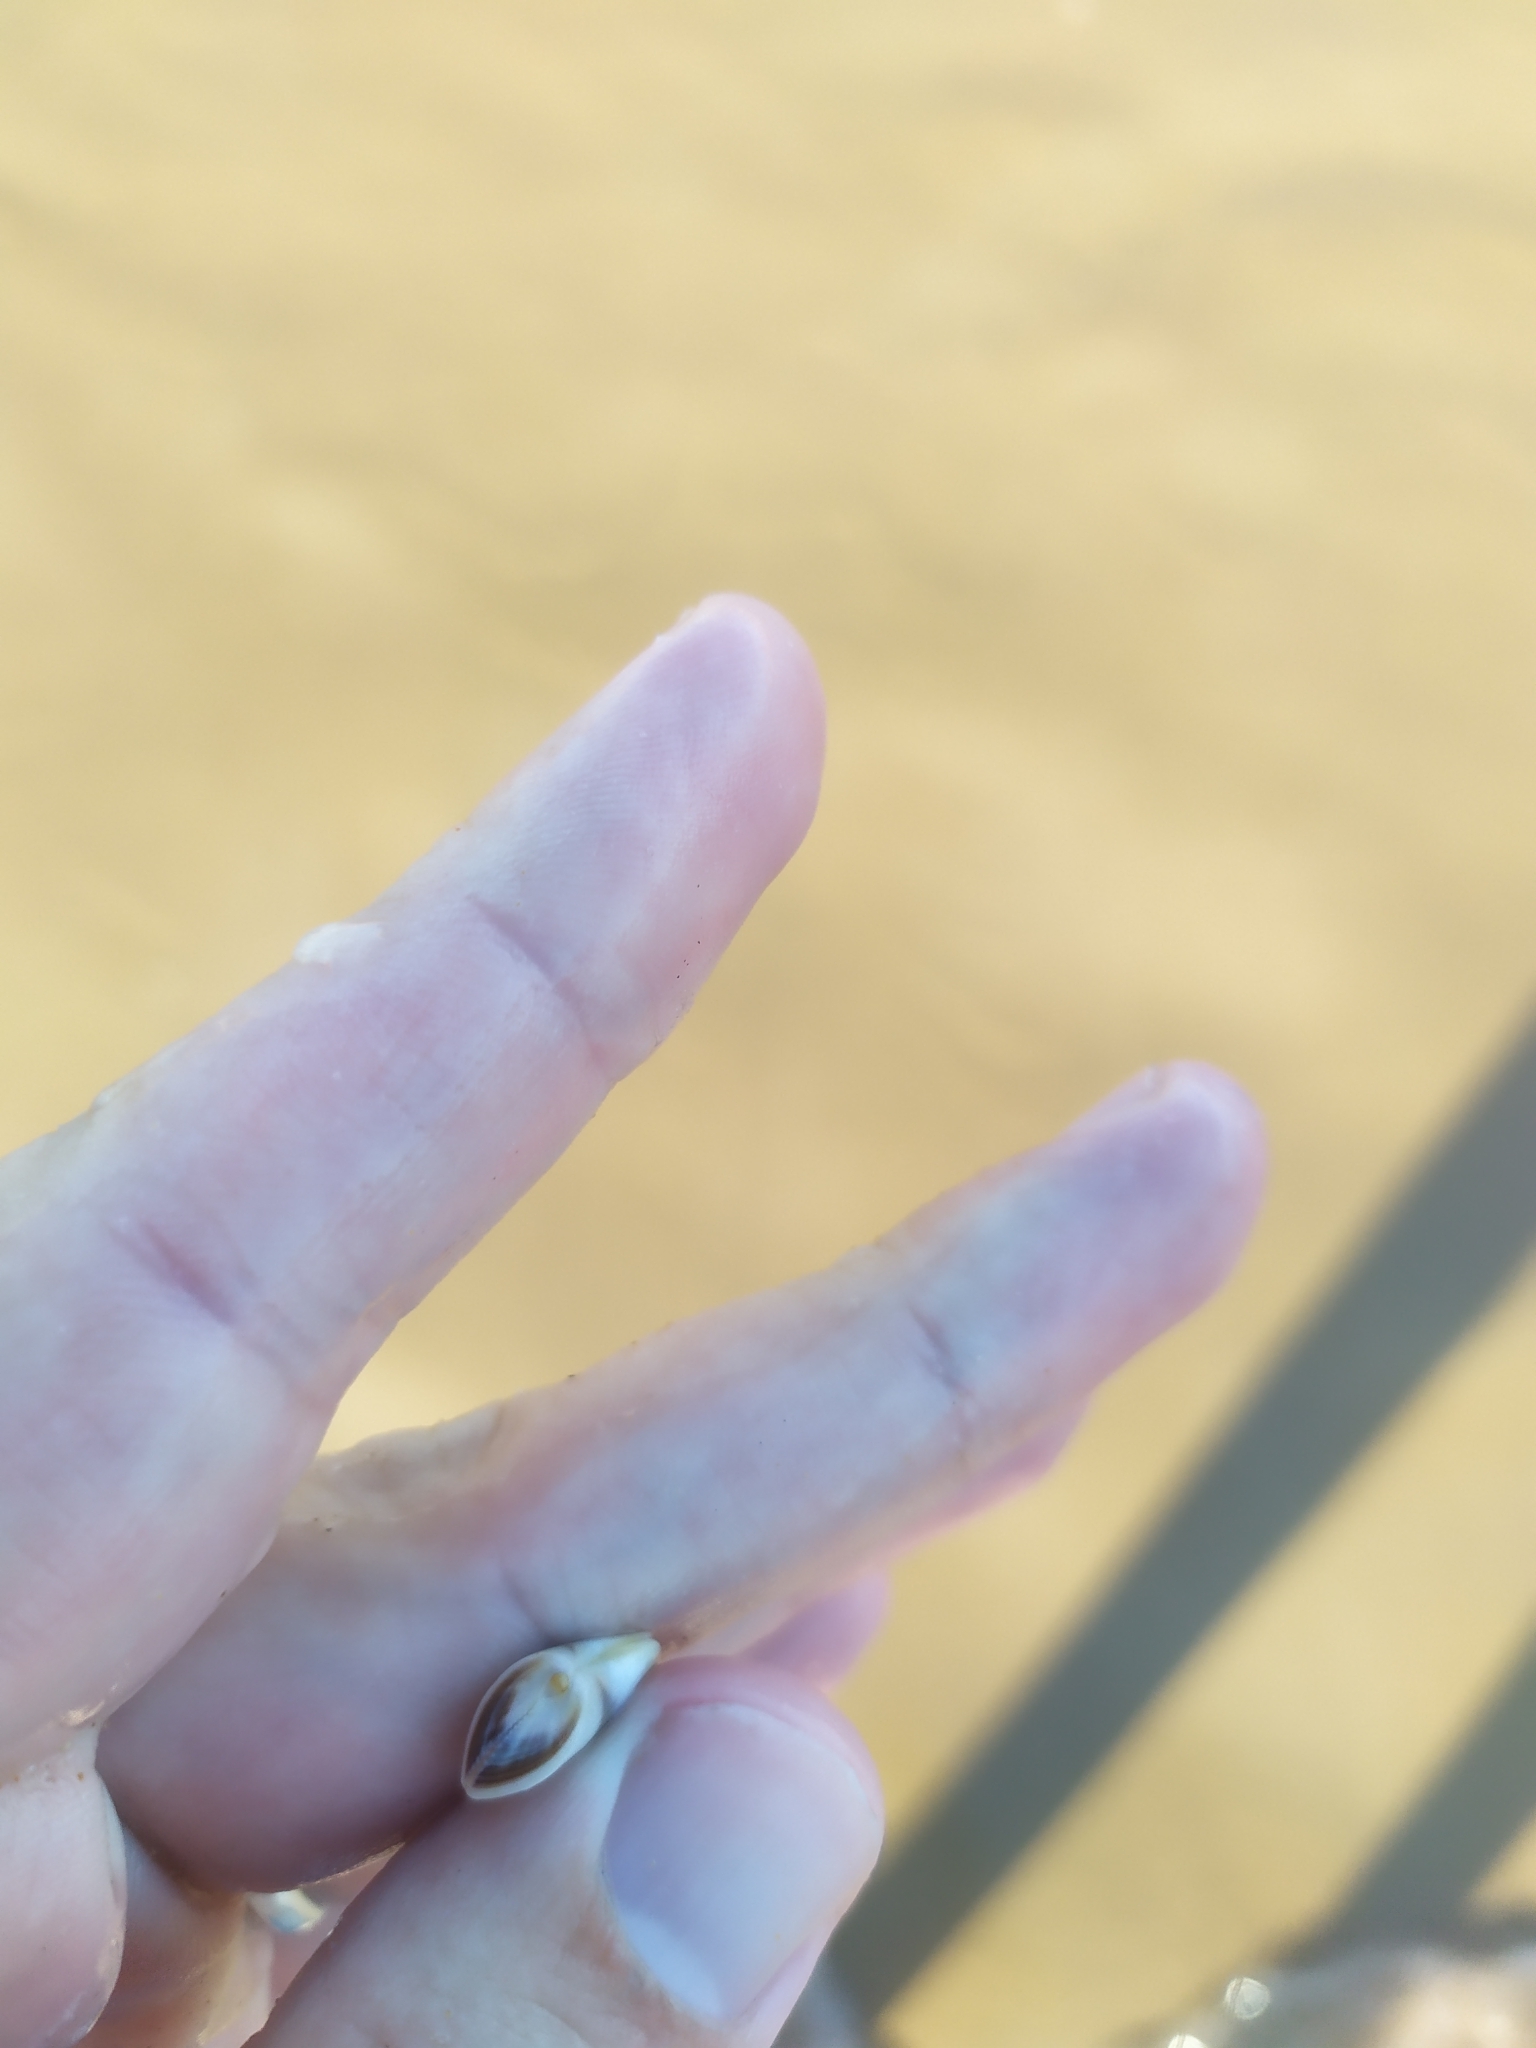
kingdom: Animalia
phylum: Mollusca
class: Bivalvia
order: Cardiida
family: Donacidae
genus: Donax
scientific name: Donax hanleyanus
